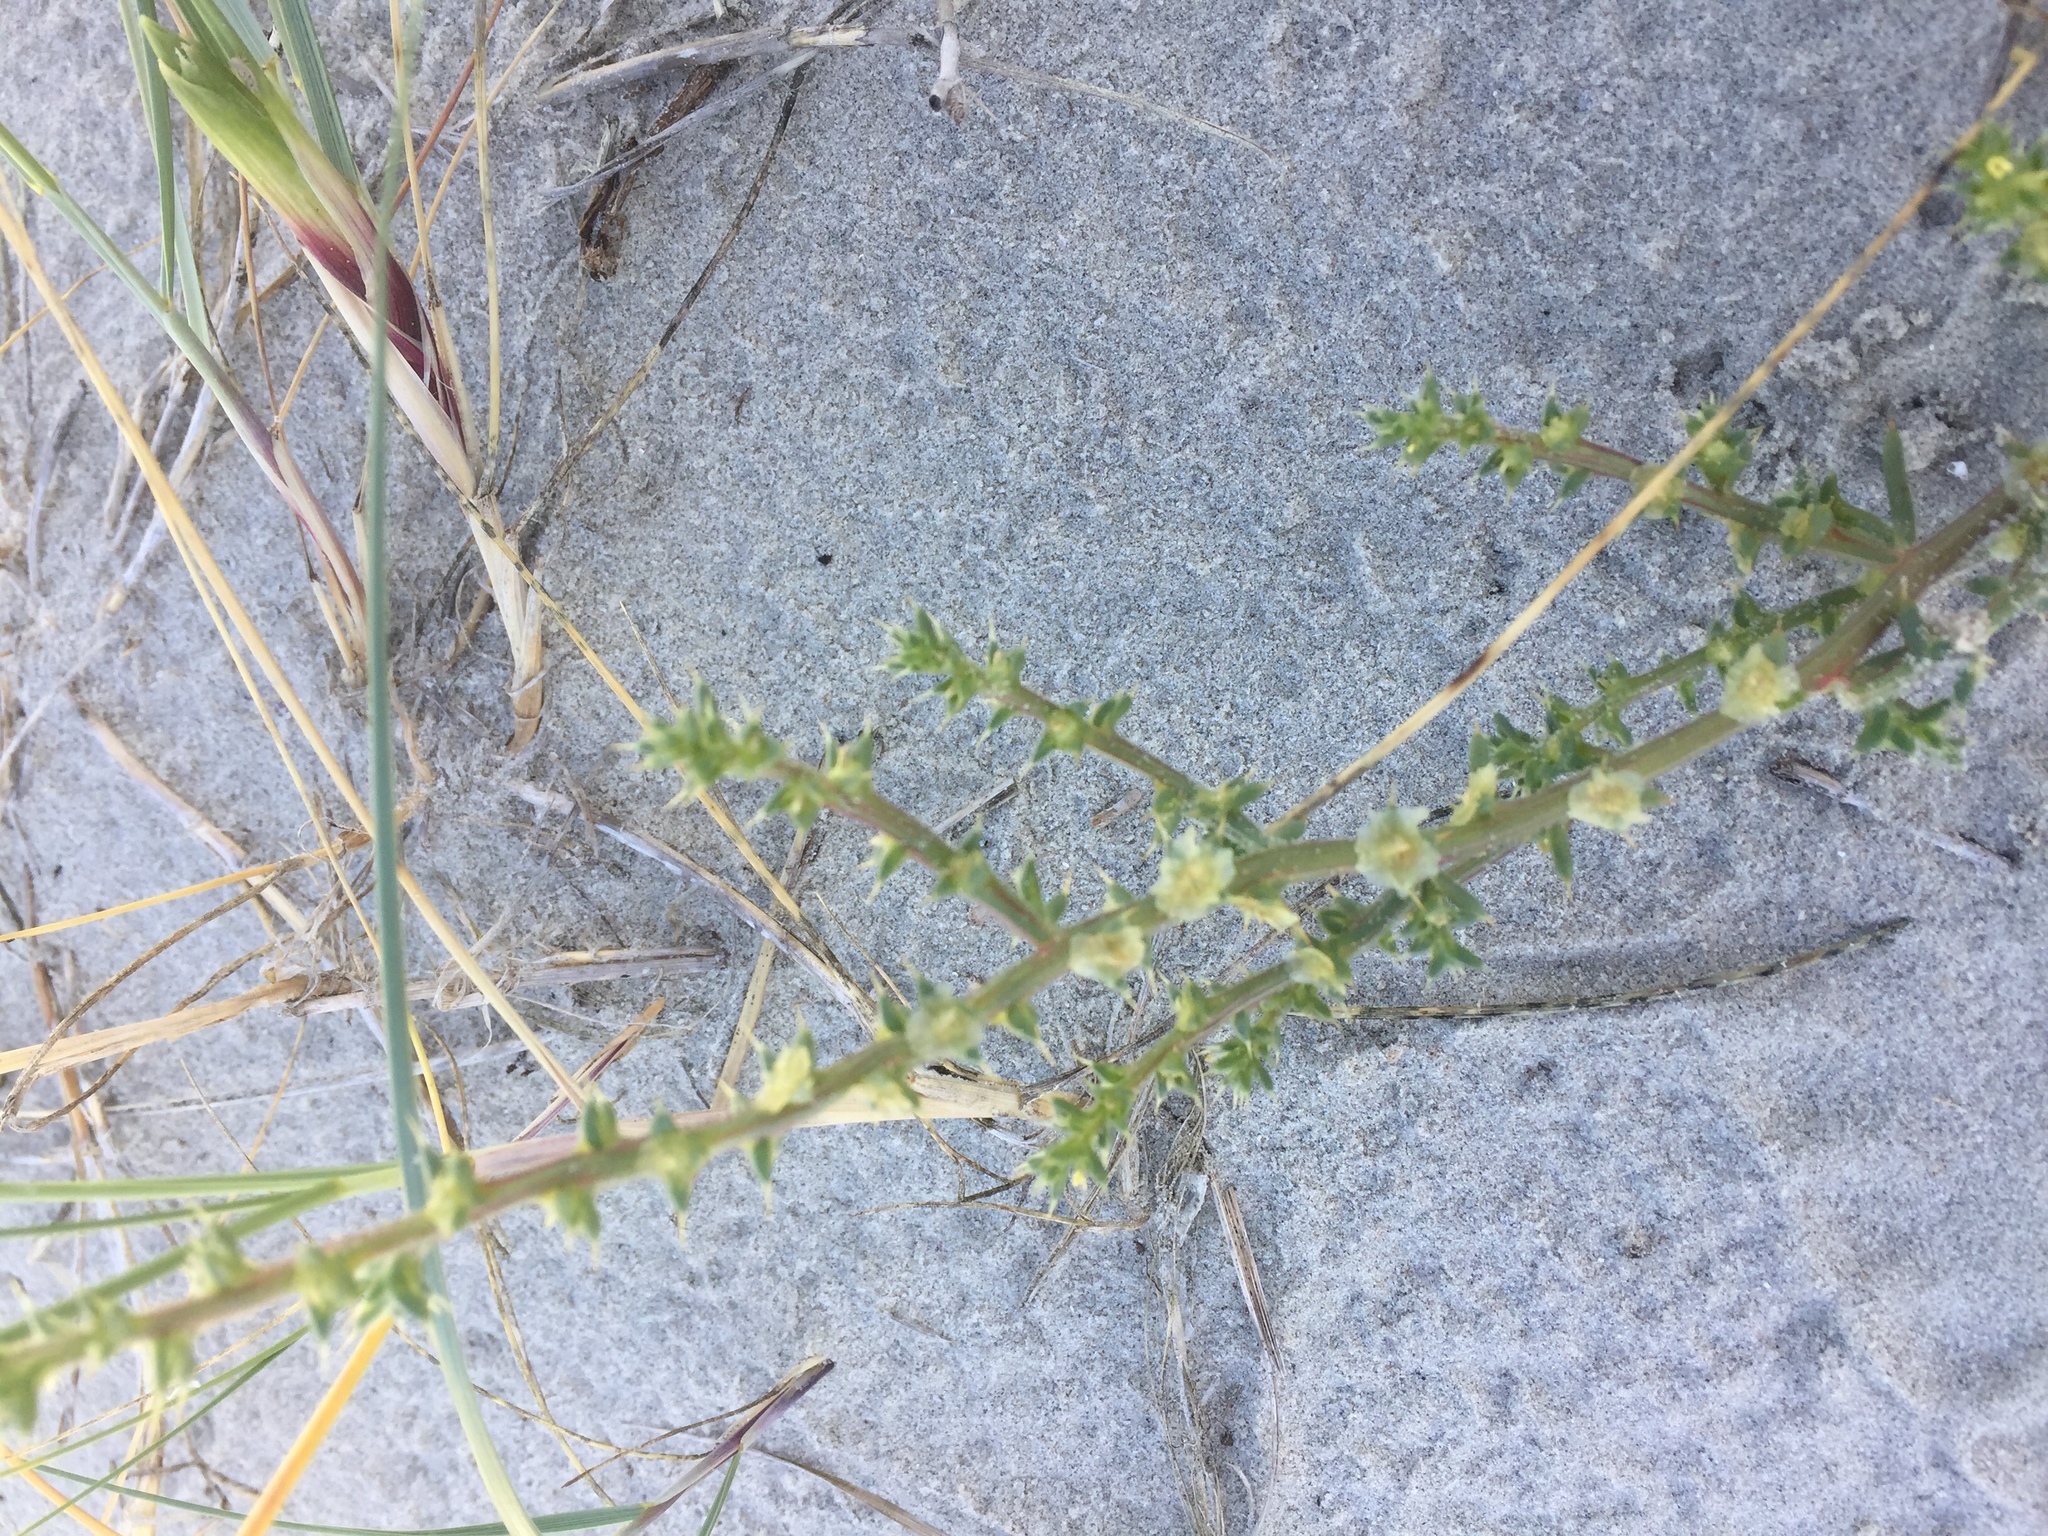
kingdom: Plantae
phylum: Tracheophyta
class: Magnoliopsida
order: Caryophyllales
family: Amaranthaceae
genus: Salsola
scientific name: Salsola kali
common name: Saltwort
